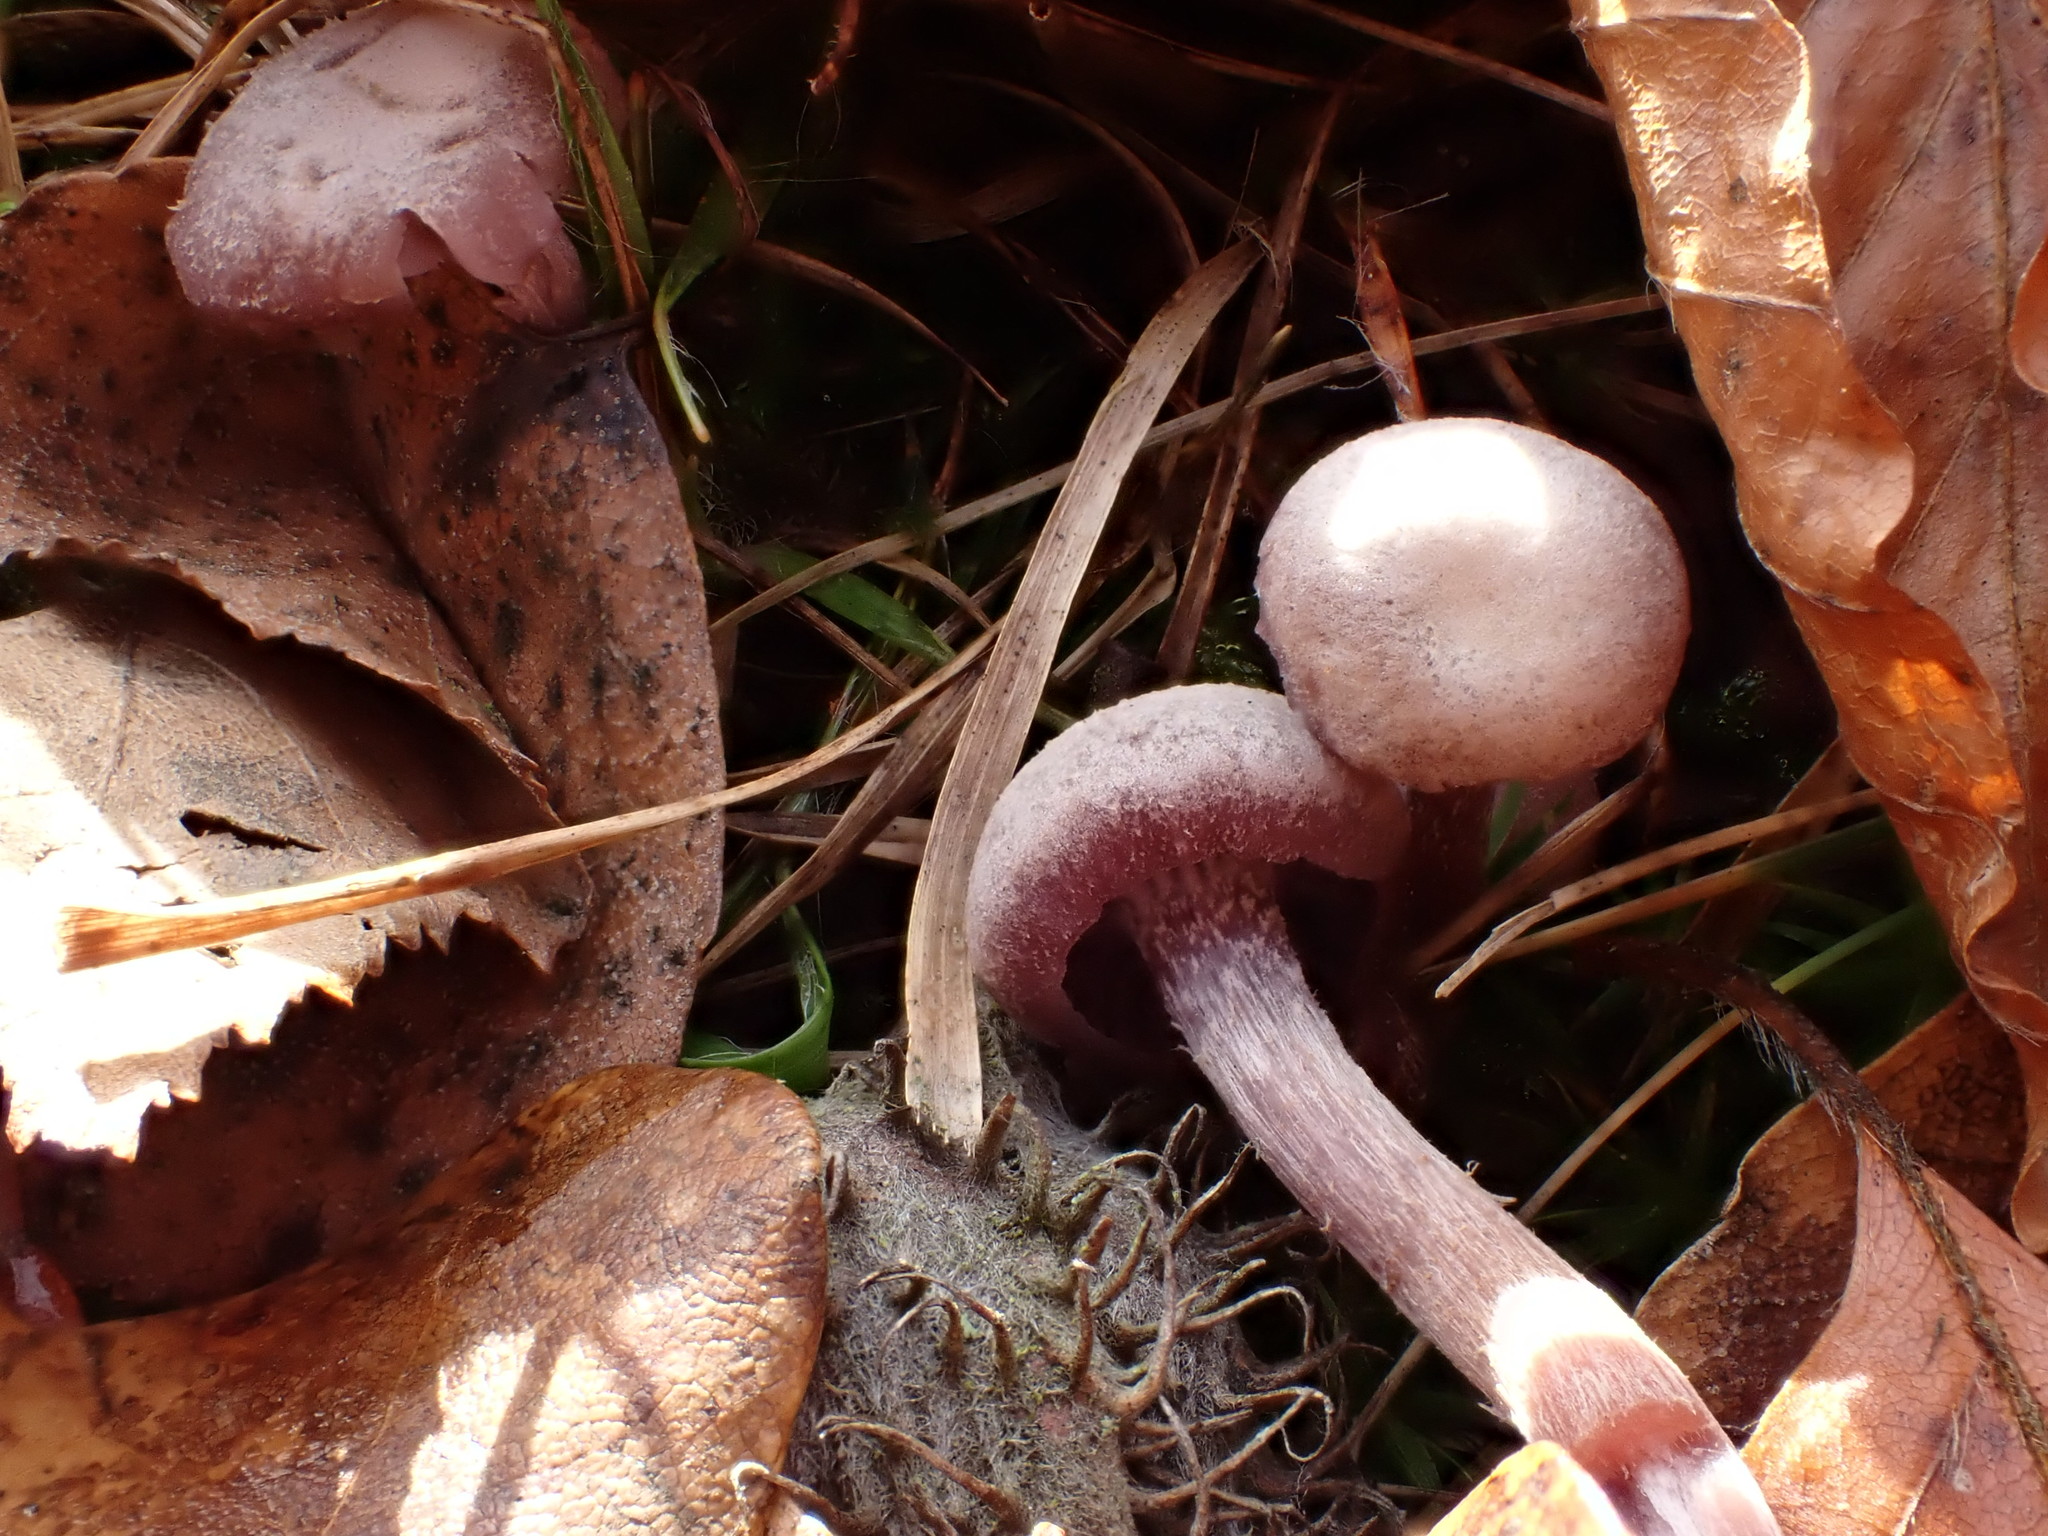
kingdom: Fungi
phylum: Basidiomycota
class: Agaricomycetes
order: Agaricales
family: Hydnangiaceae
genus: Laccaria
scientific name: Laccaria amethystina
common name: Amethyst deceiver
